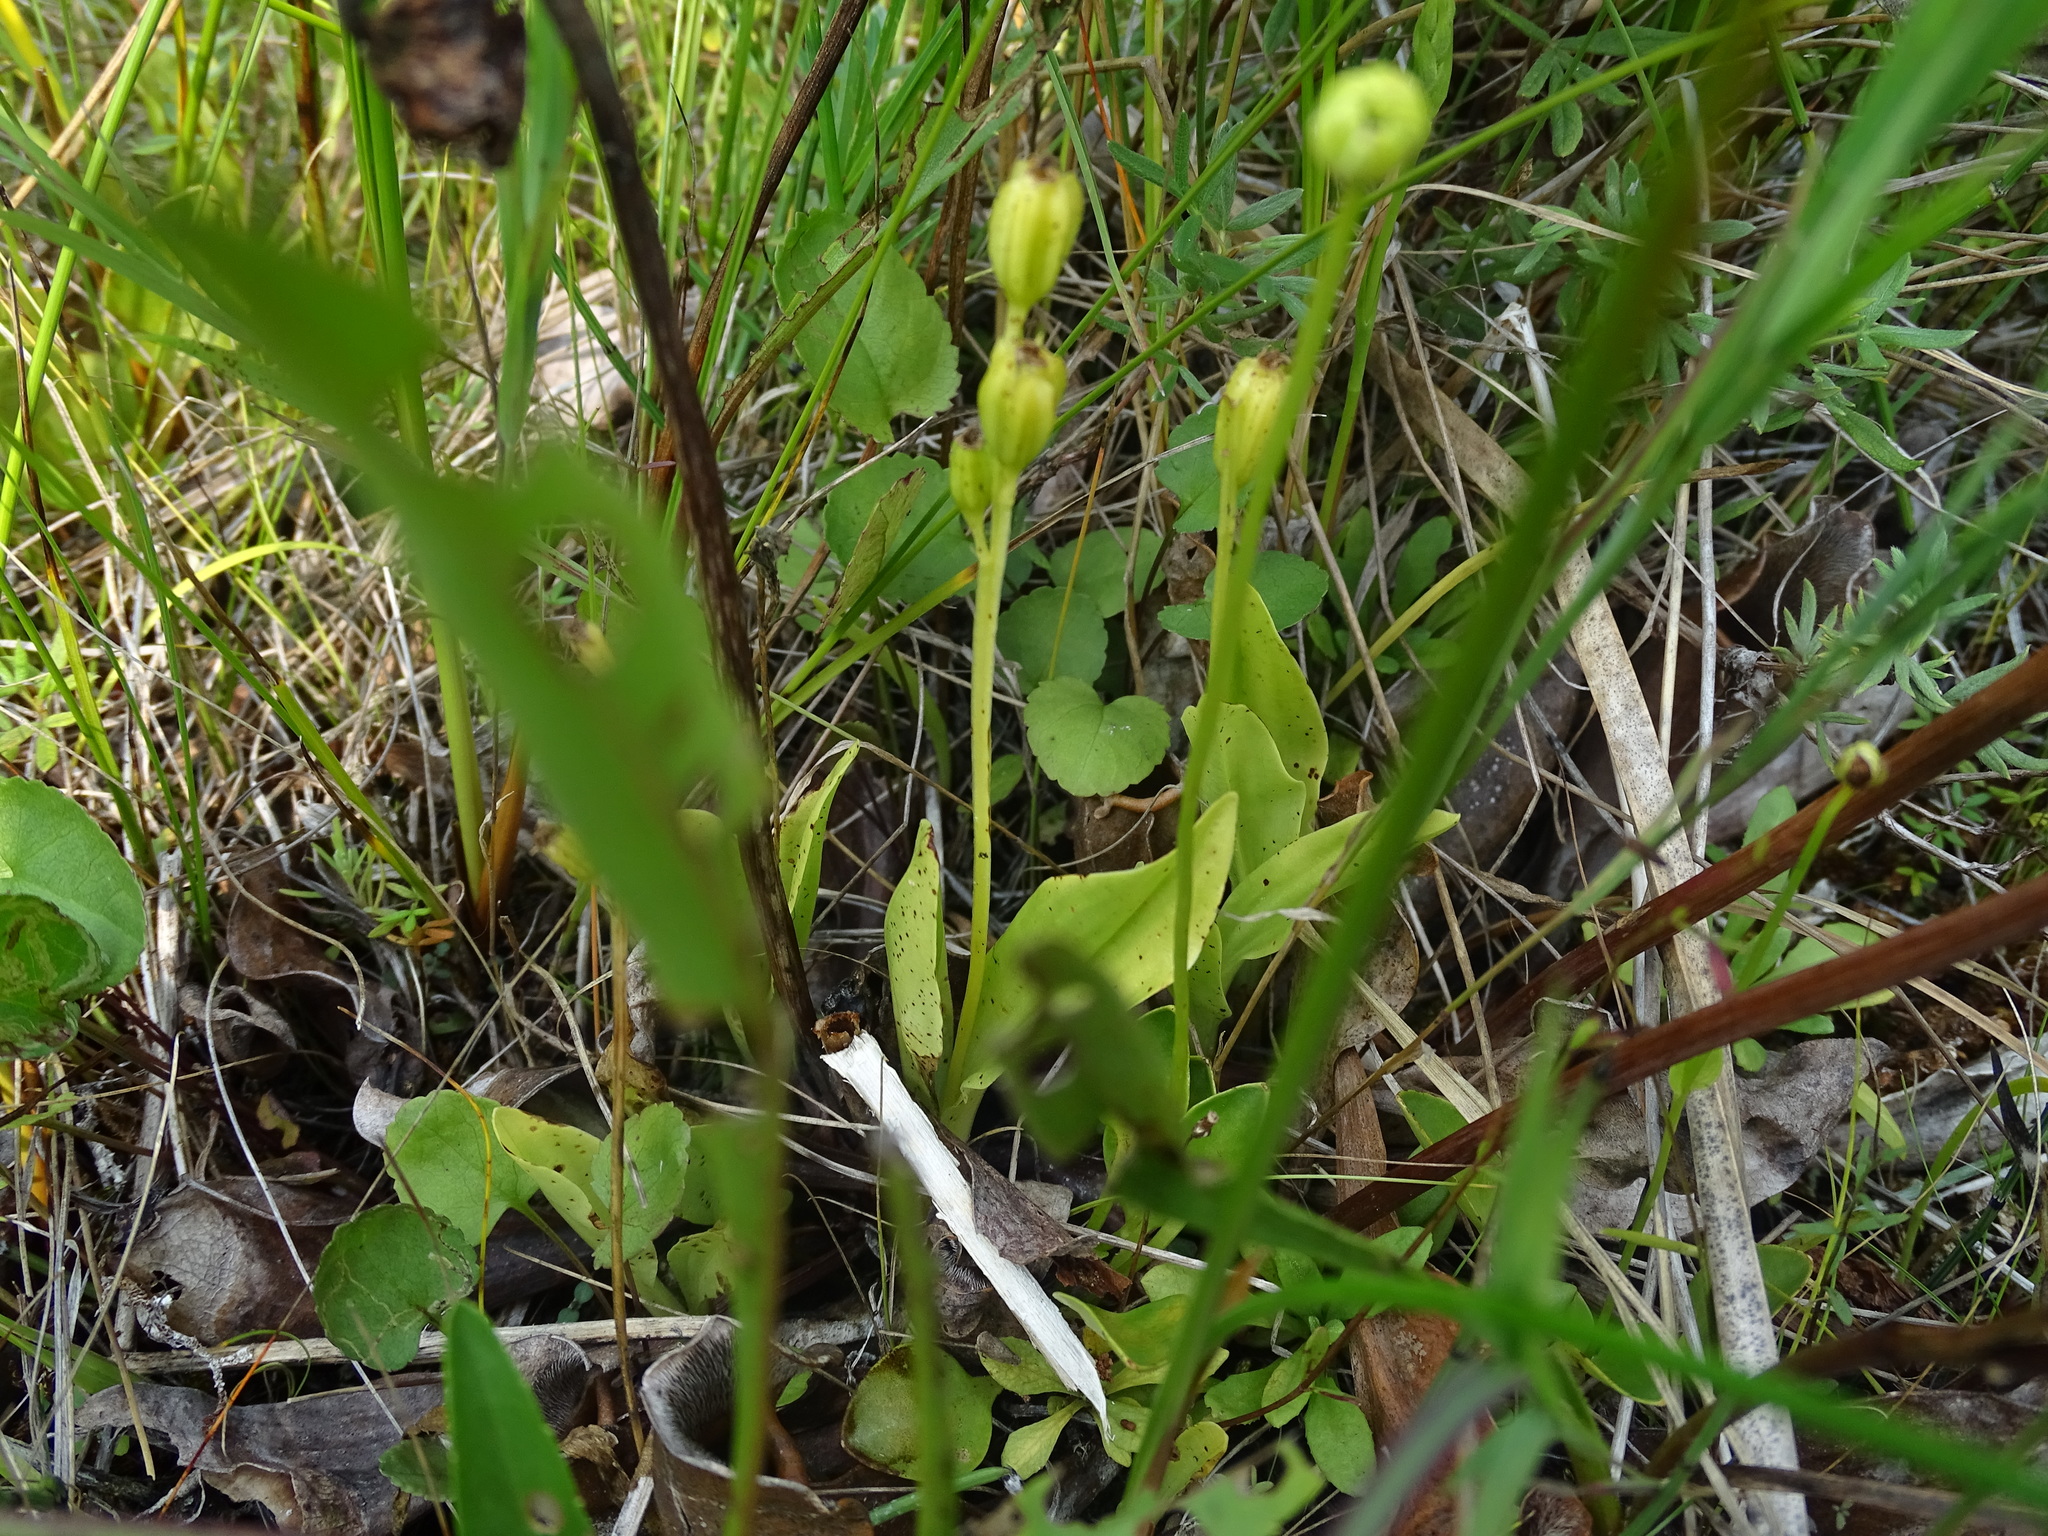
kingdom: Animalia
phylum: Arthropoda
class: Insecta
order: Coleoptera
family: Curculionidae
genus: Liparis
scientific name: Liparis loeselii
